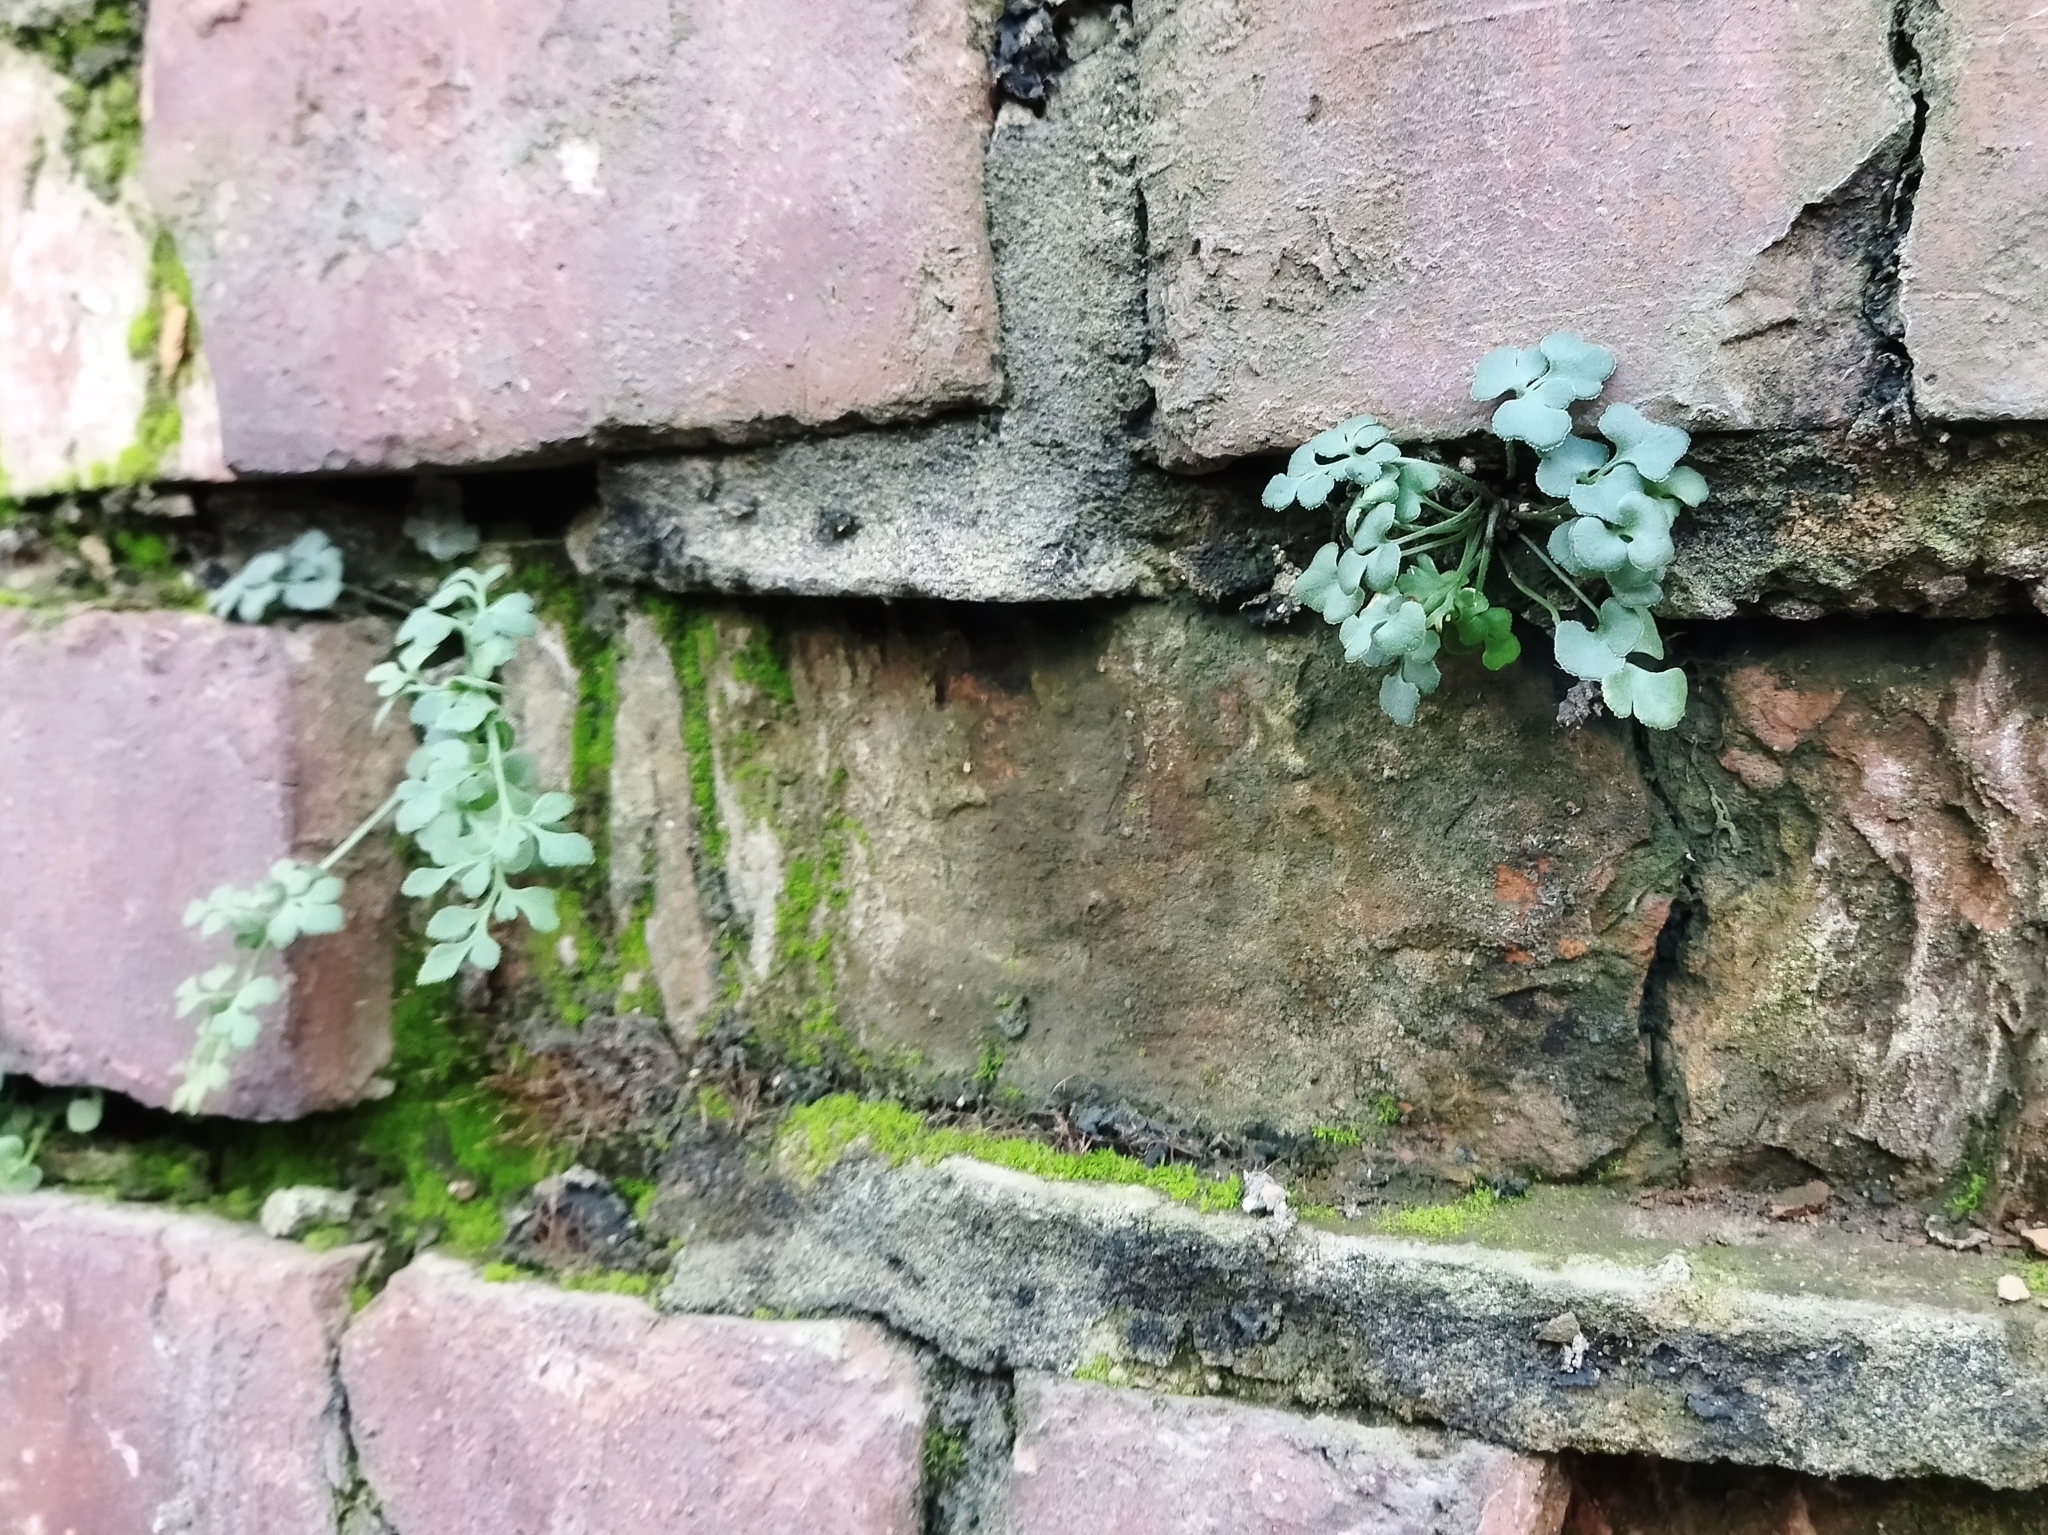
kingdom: Plantae
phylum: Tracheophyta
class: Polypodiopsida
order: Polypodiales
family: Aspleniaceae
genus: Asplenium
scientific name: Asplenium ruta-muraria
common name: Wall-rue
